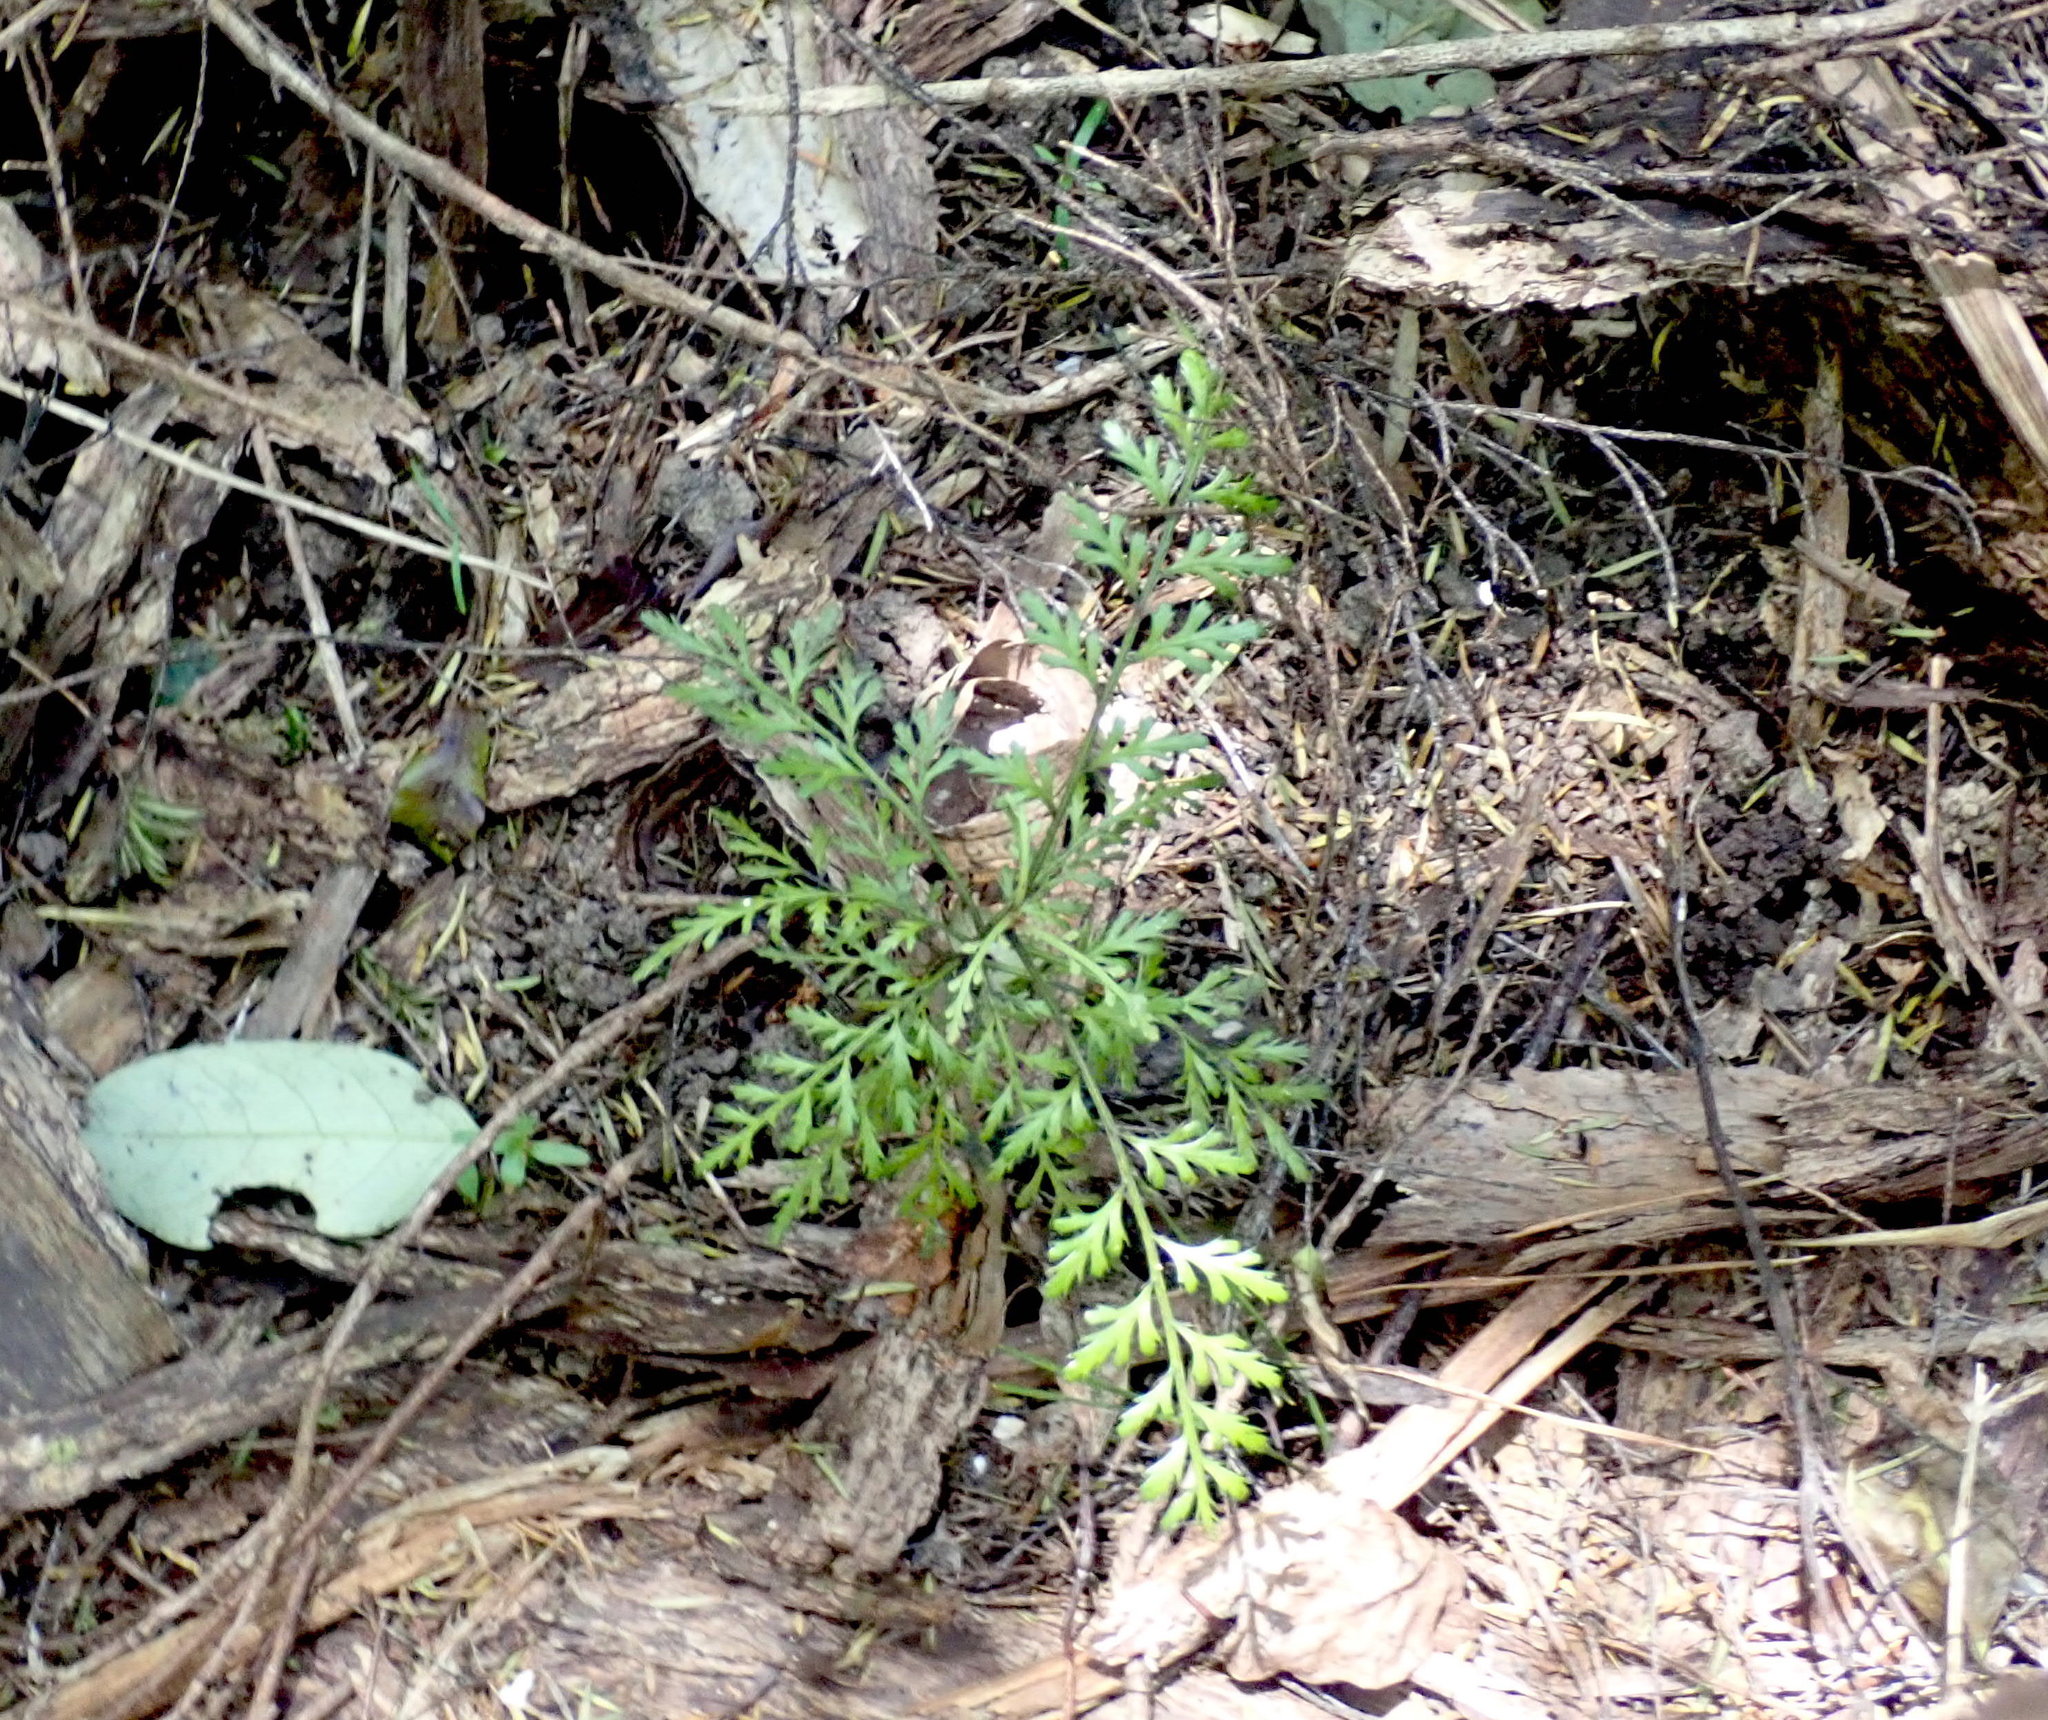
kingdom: Plantae
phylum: Tracheophyta
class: Pinopsida
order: Pinales
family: Phyllocladaceae
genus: Phyllocladus
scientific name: Phyllocladus trichomanoides
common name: Celery pine
